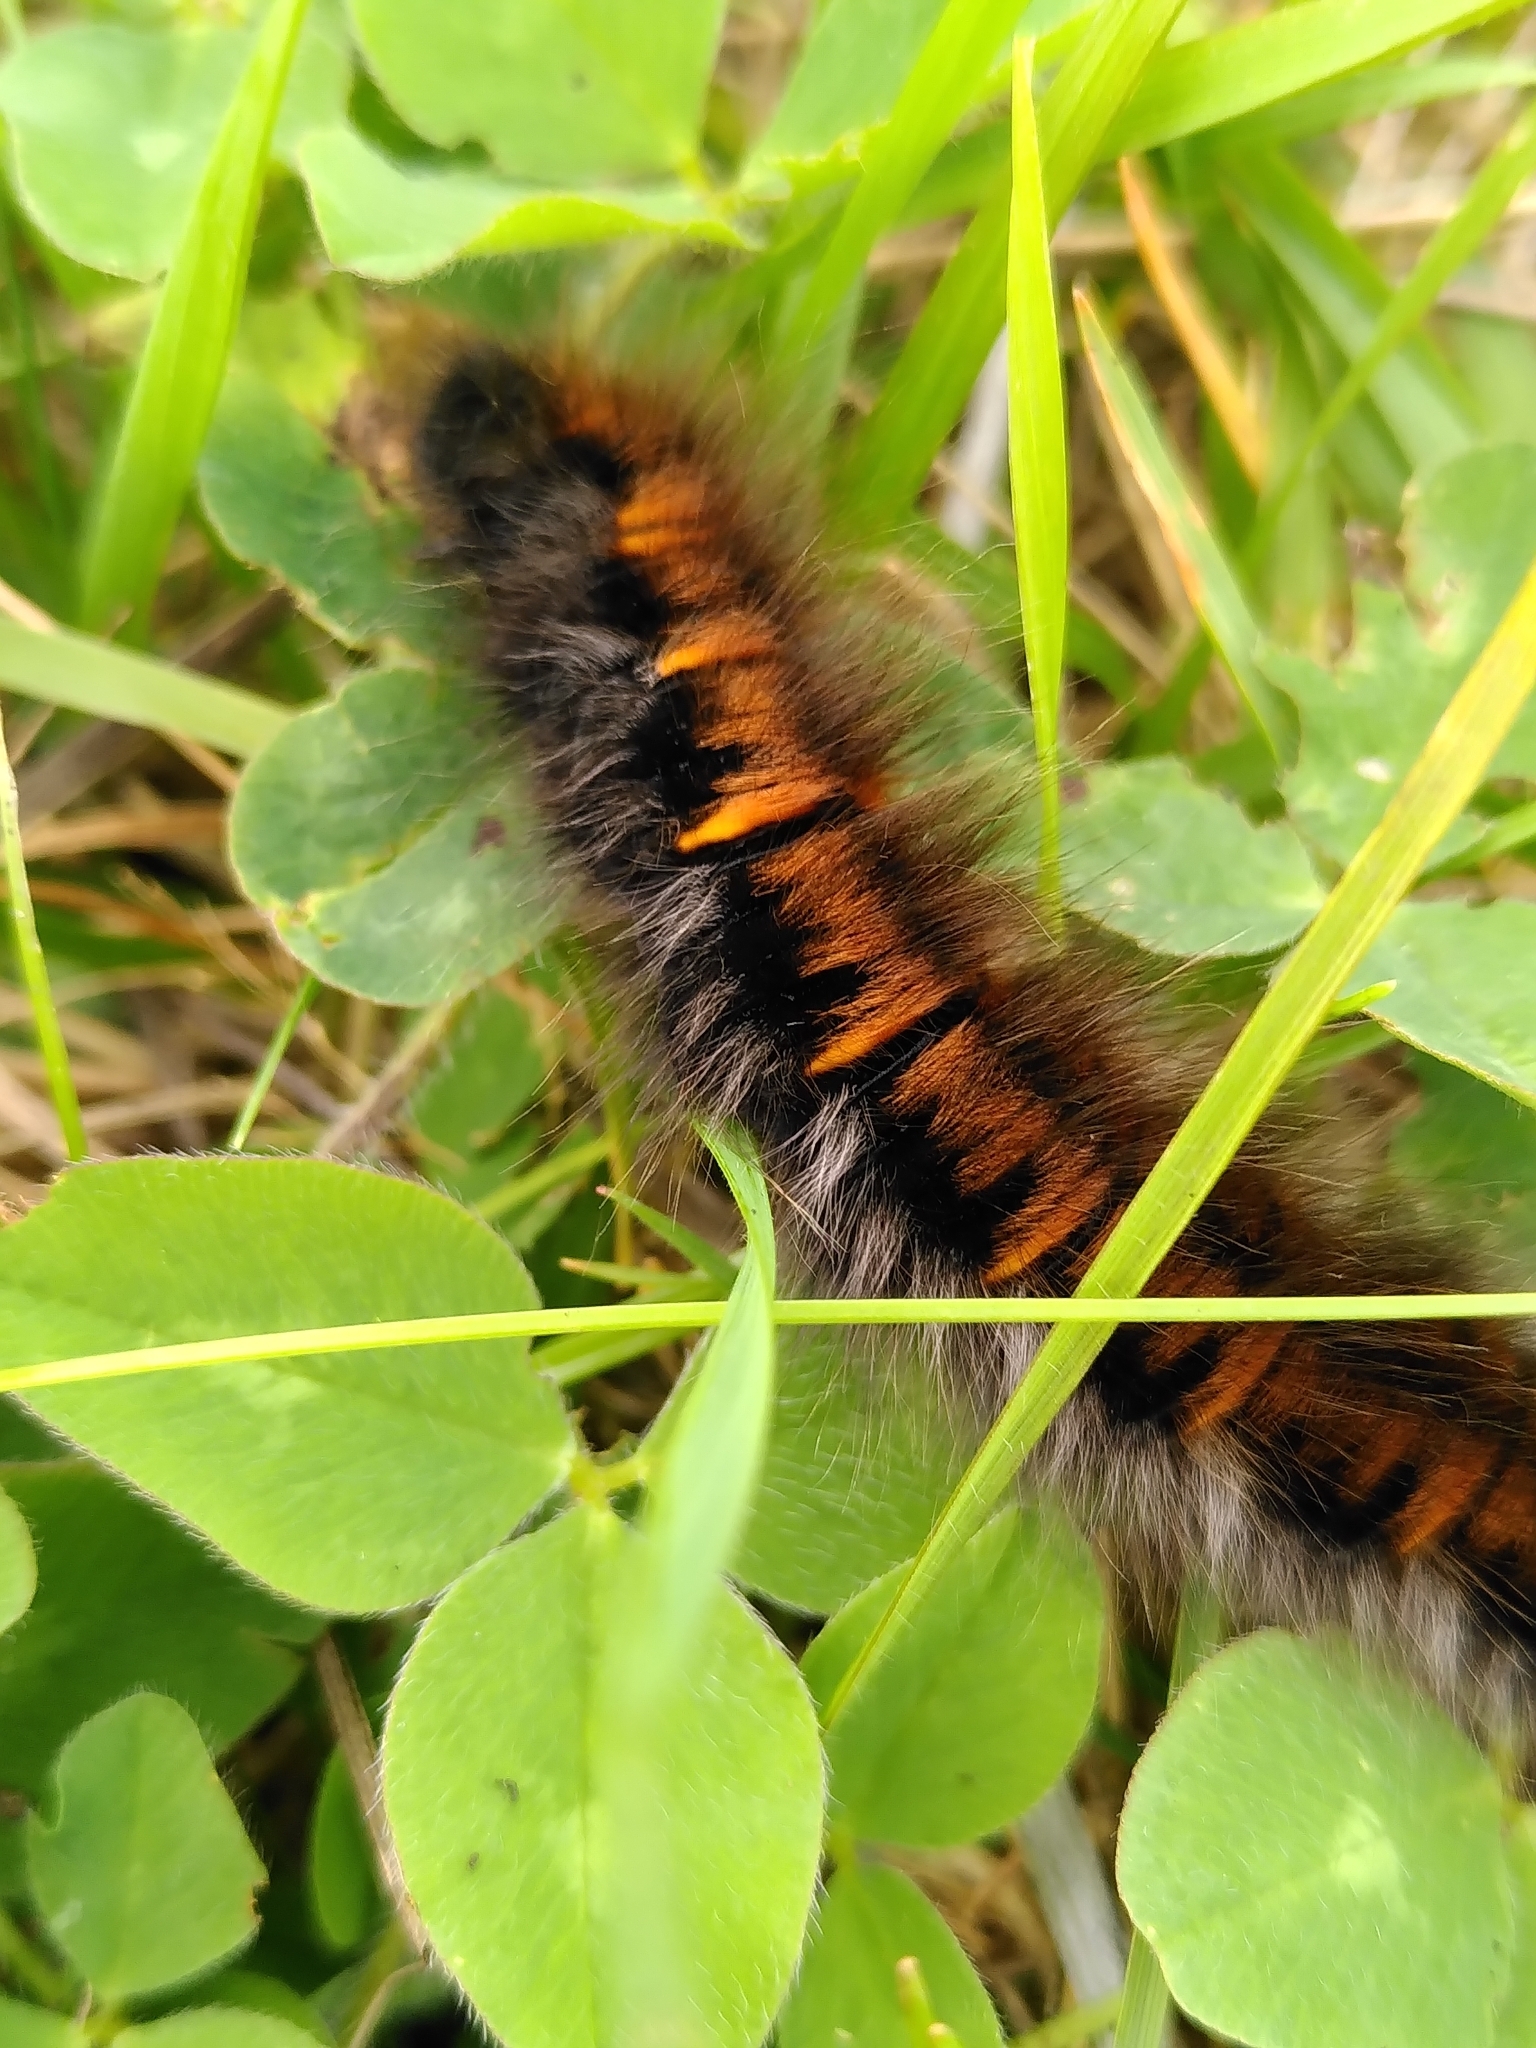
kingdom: Animalia
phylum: Arthropoda
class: Insecta
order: Lepidoptera
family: Lasiocampidae
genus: Macrothylacia
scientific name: Macrothylacia rubi
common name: Fox moth
